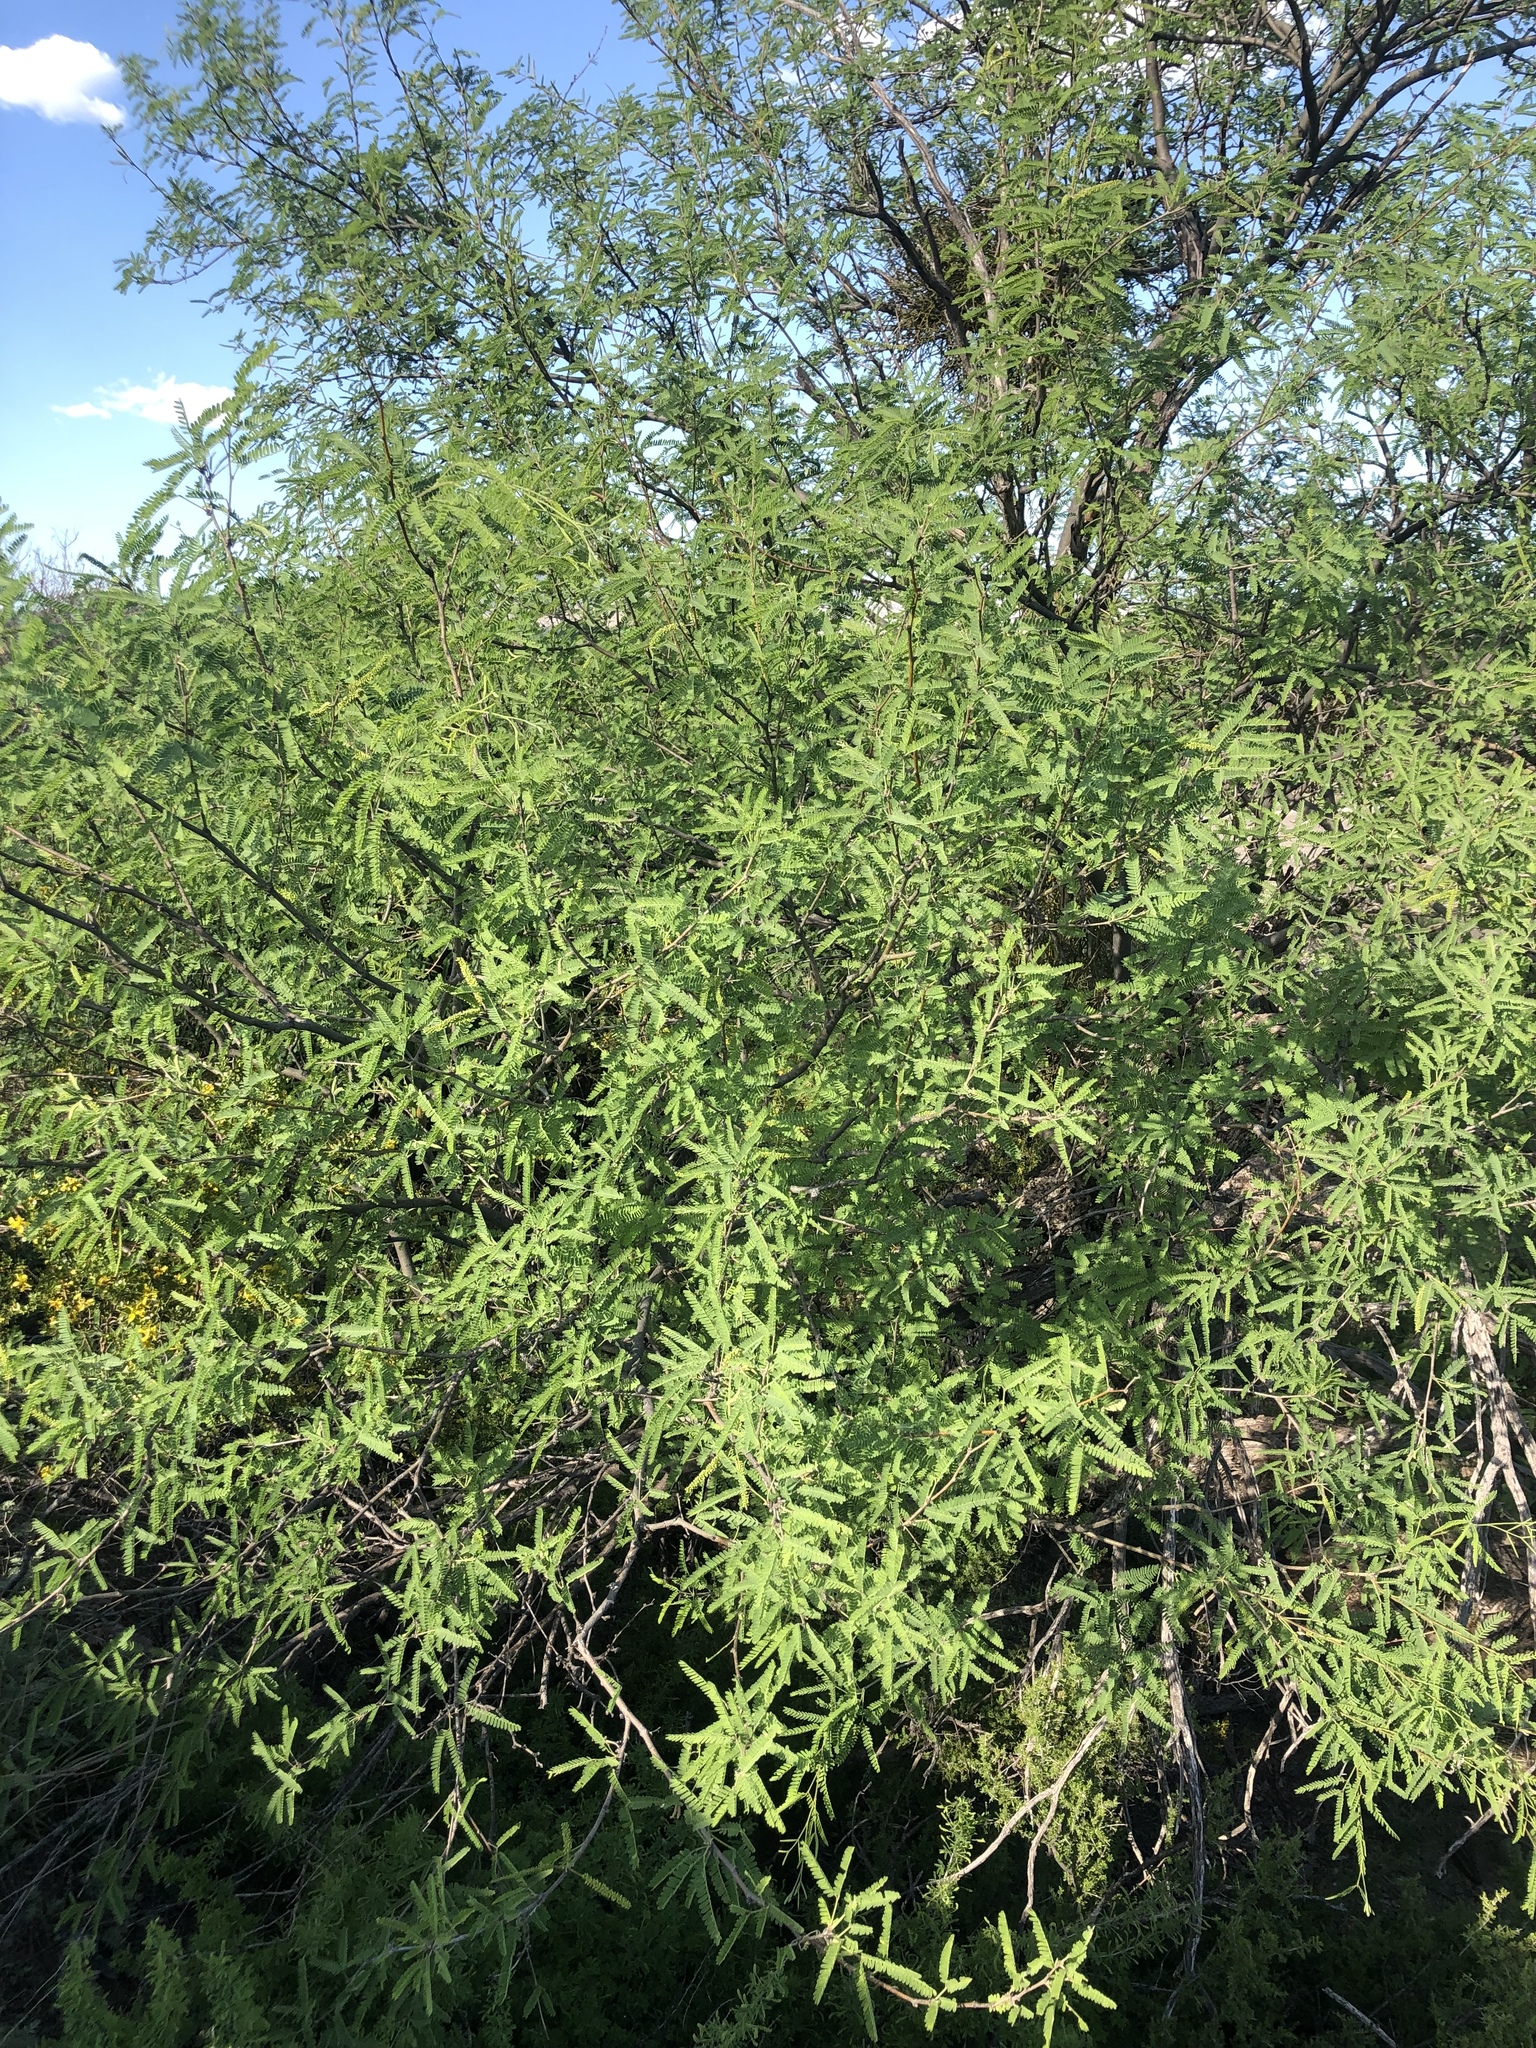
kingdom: Plantae
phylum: Tracheophyta
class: Magnoliopsida
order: Fabales
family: Fabaceae
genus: Prosopis
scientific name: Prosopis velutina
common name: Velvet mesquite
